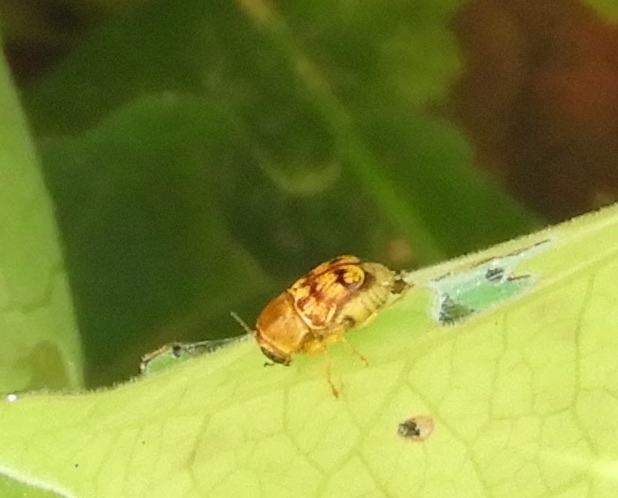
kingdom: Animalia
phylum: Arthropoda
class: Insecta
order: Coleoptera
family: Chrysomelidae
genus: Griburius
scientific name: Griburius puncturatus
